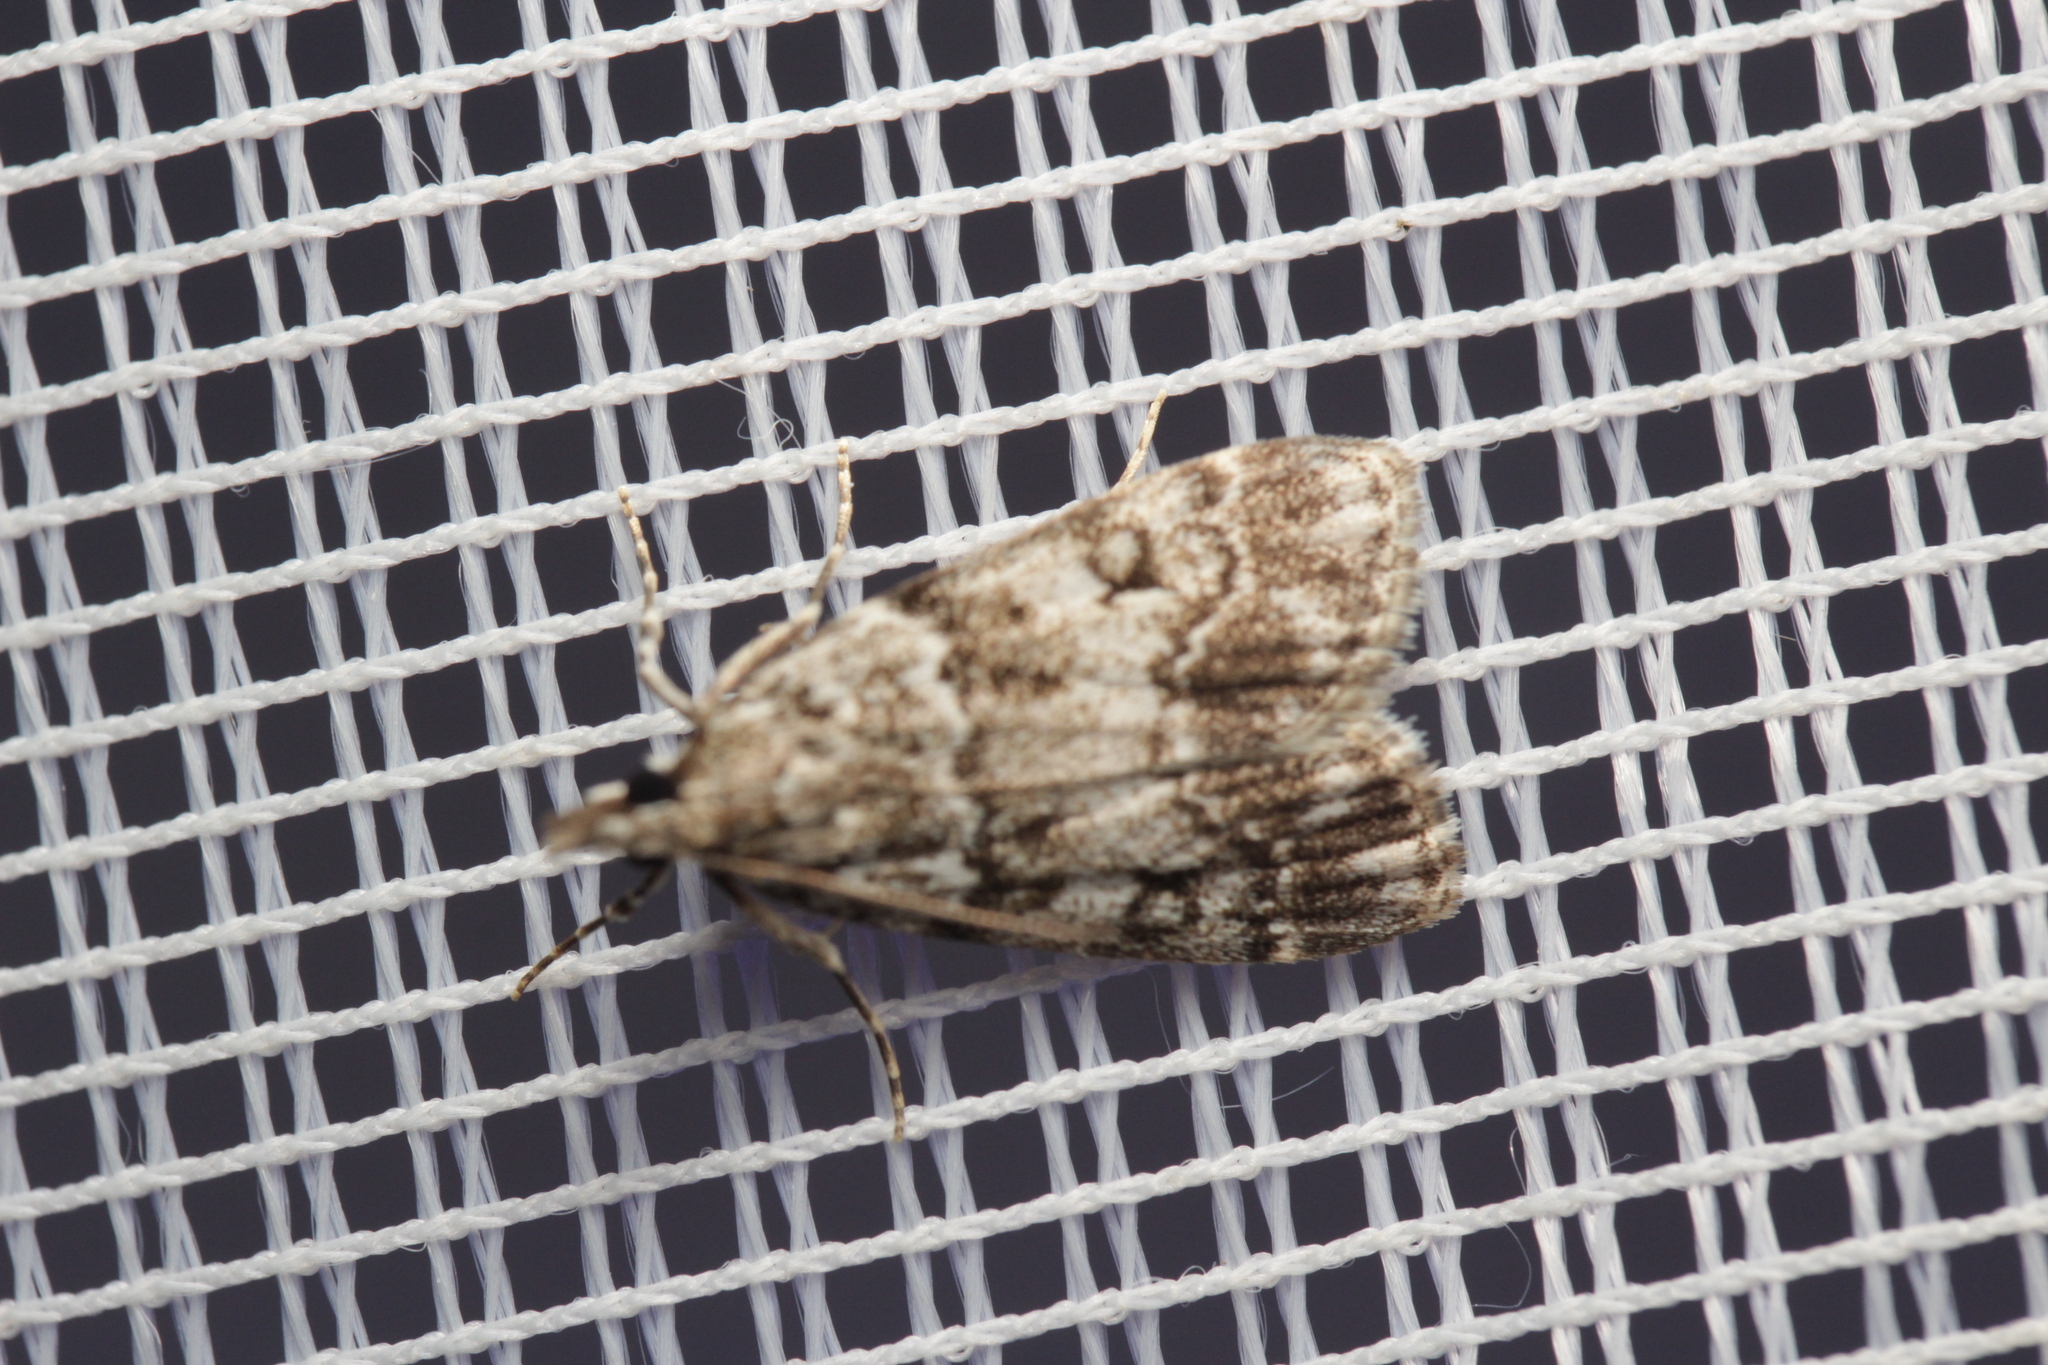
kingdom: Animalia
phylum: Arthropoda
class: Insecta
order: Lepidoptera
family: Crambidae
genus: Eudonia
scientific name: Eudonia lacustrata
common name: Little grey
